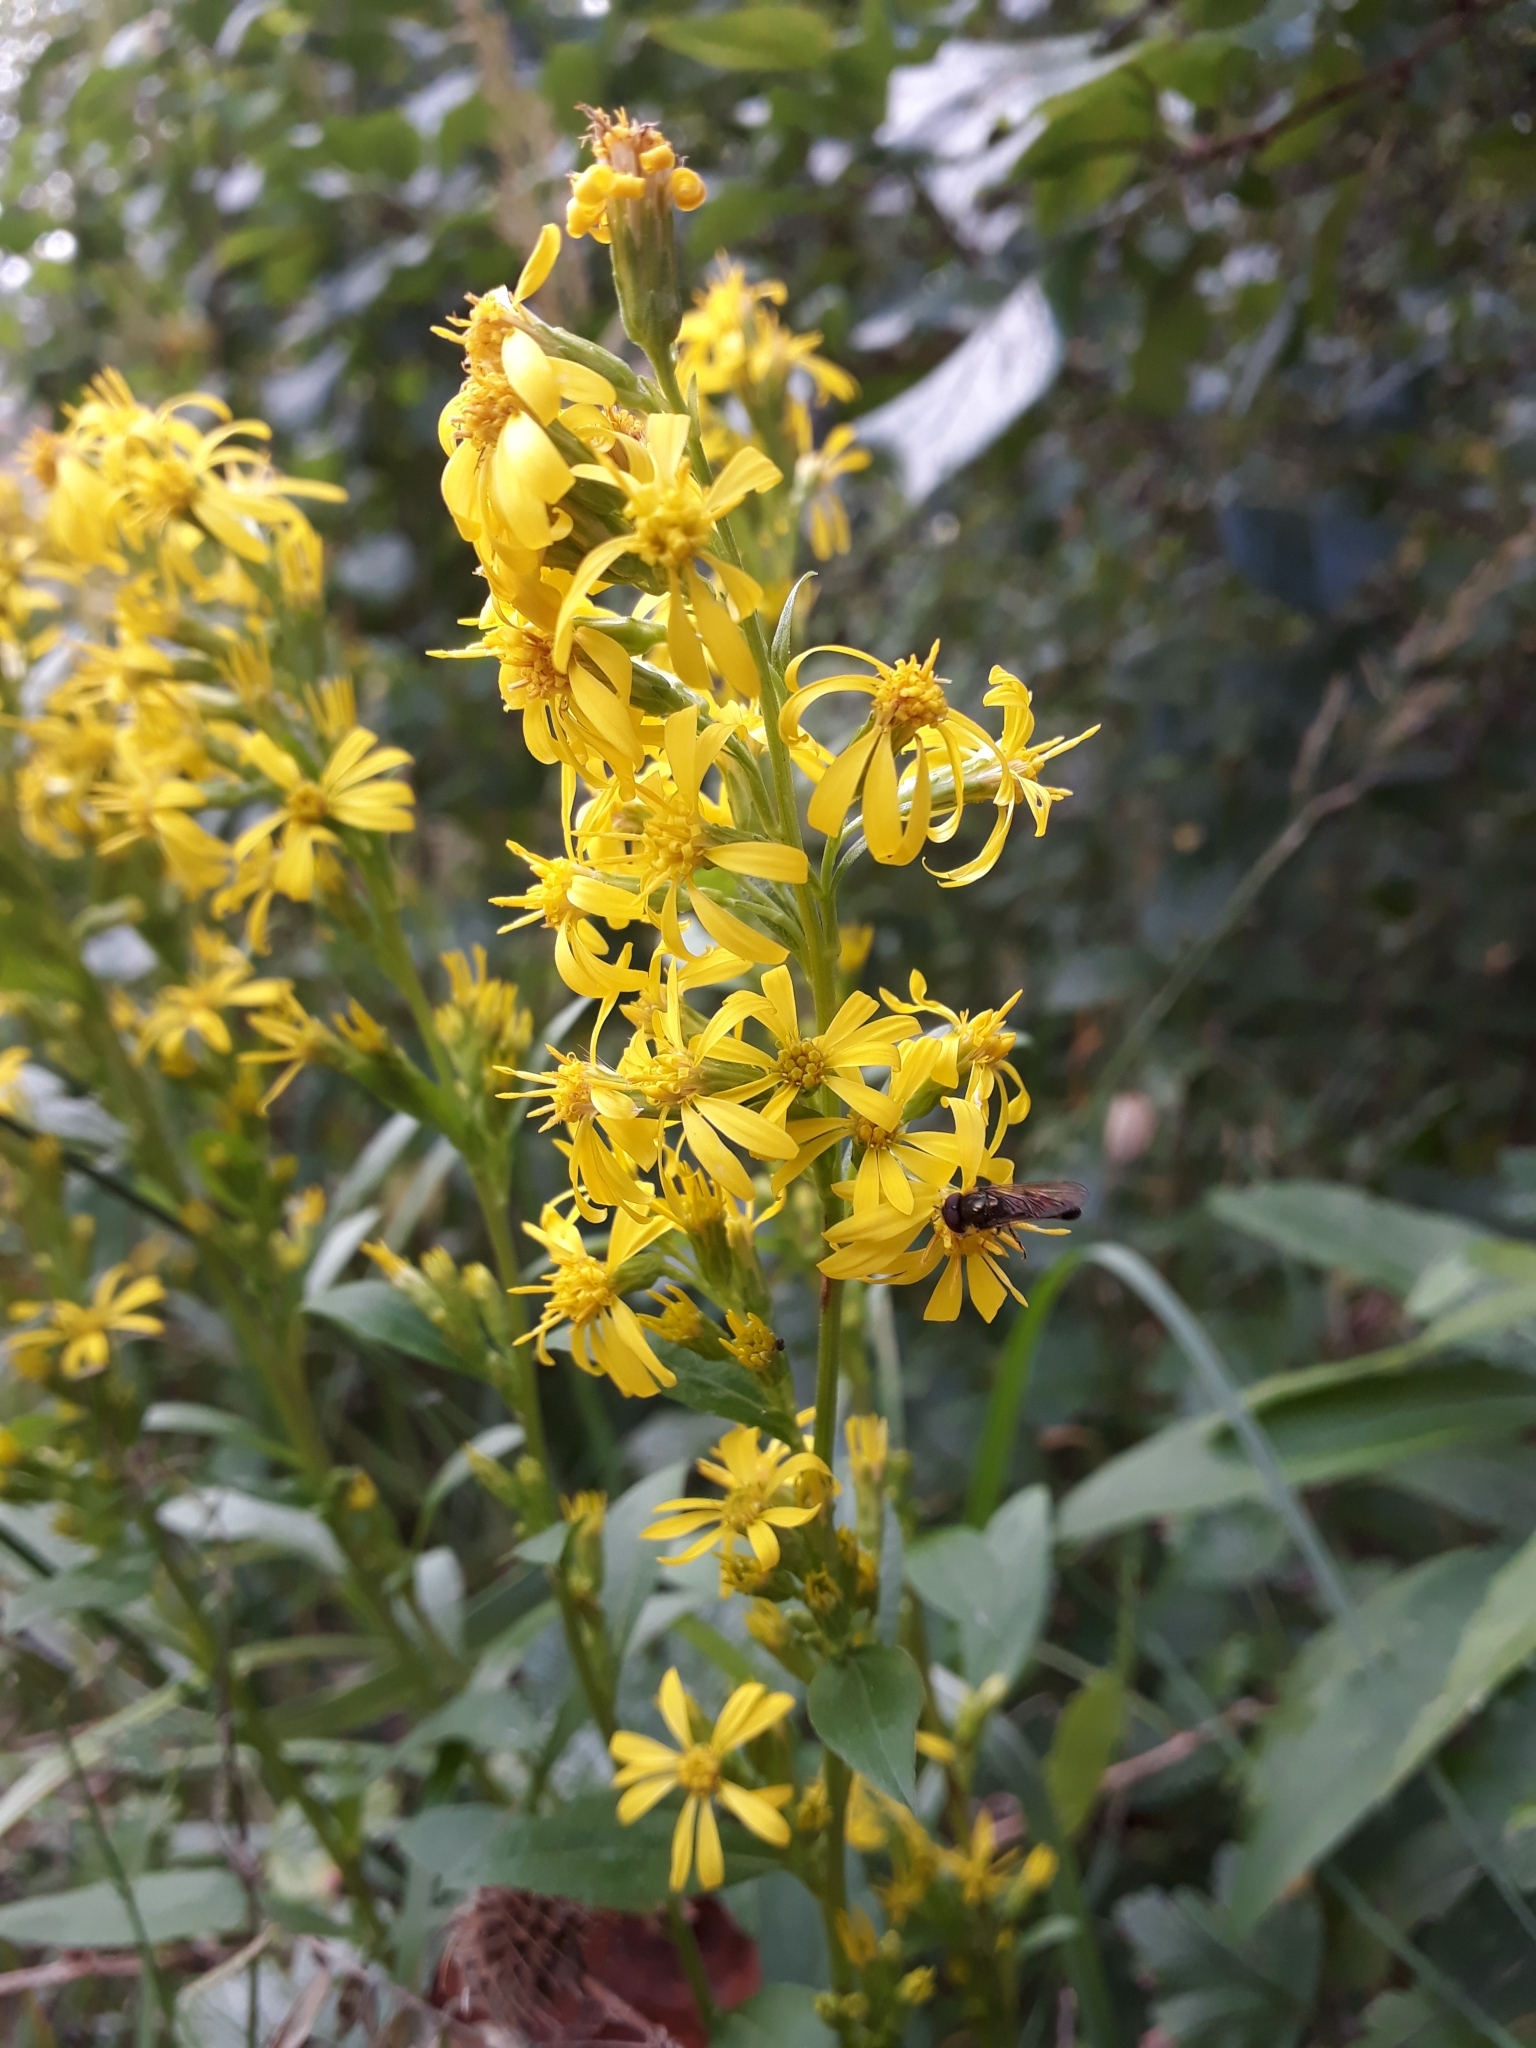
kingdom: Plantae
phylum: Tracheophyta
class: Magnoliopsida
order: Asterales
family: Asteraceae
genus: Solidago
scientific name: Solidago virgaurea
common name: Goldenrod
